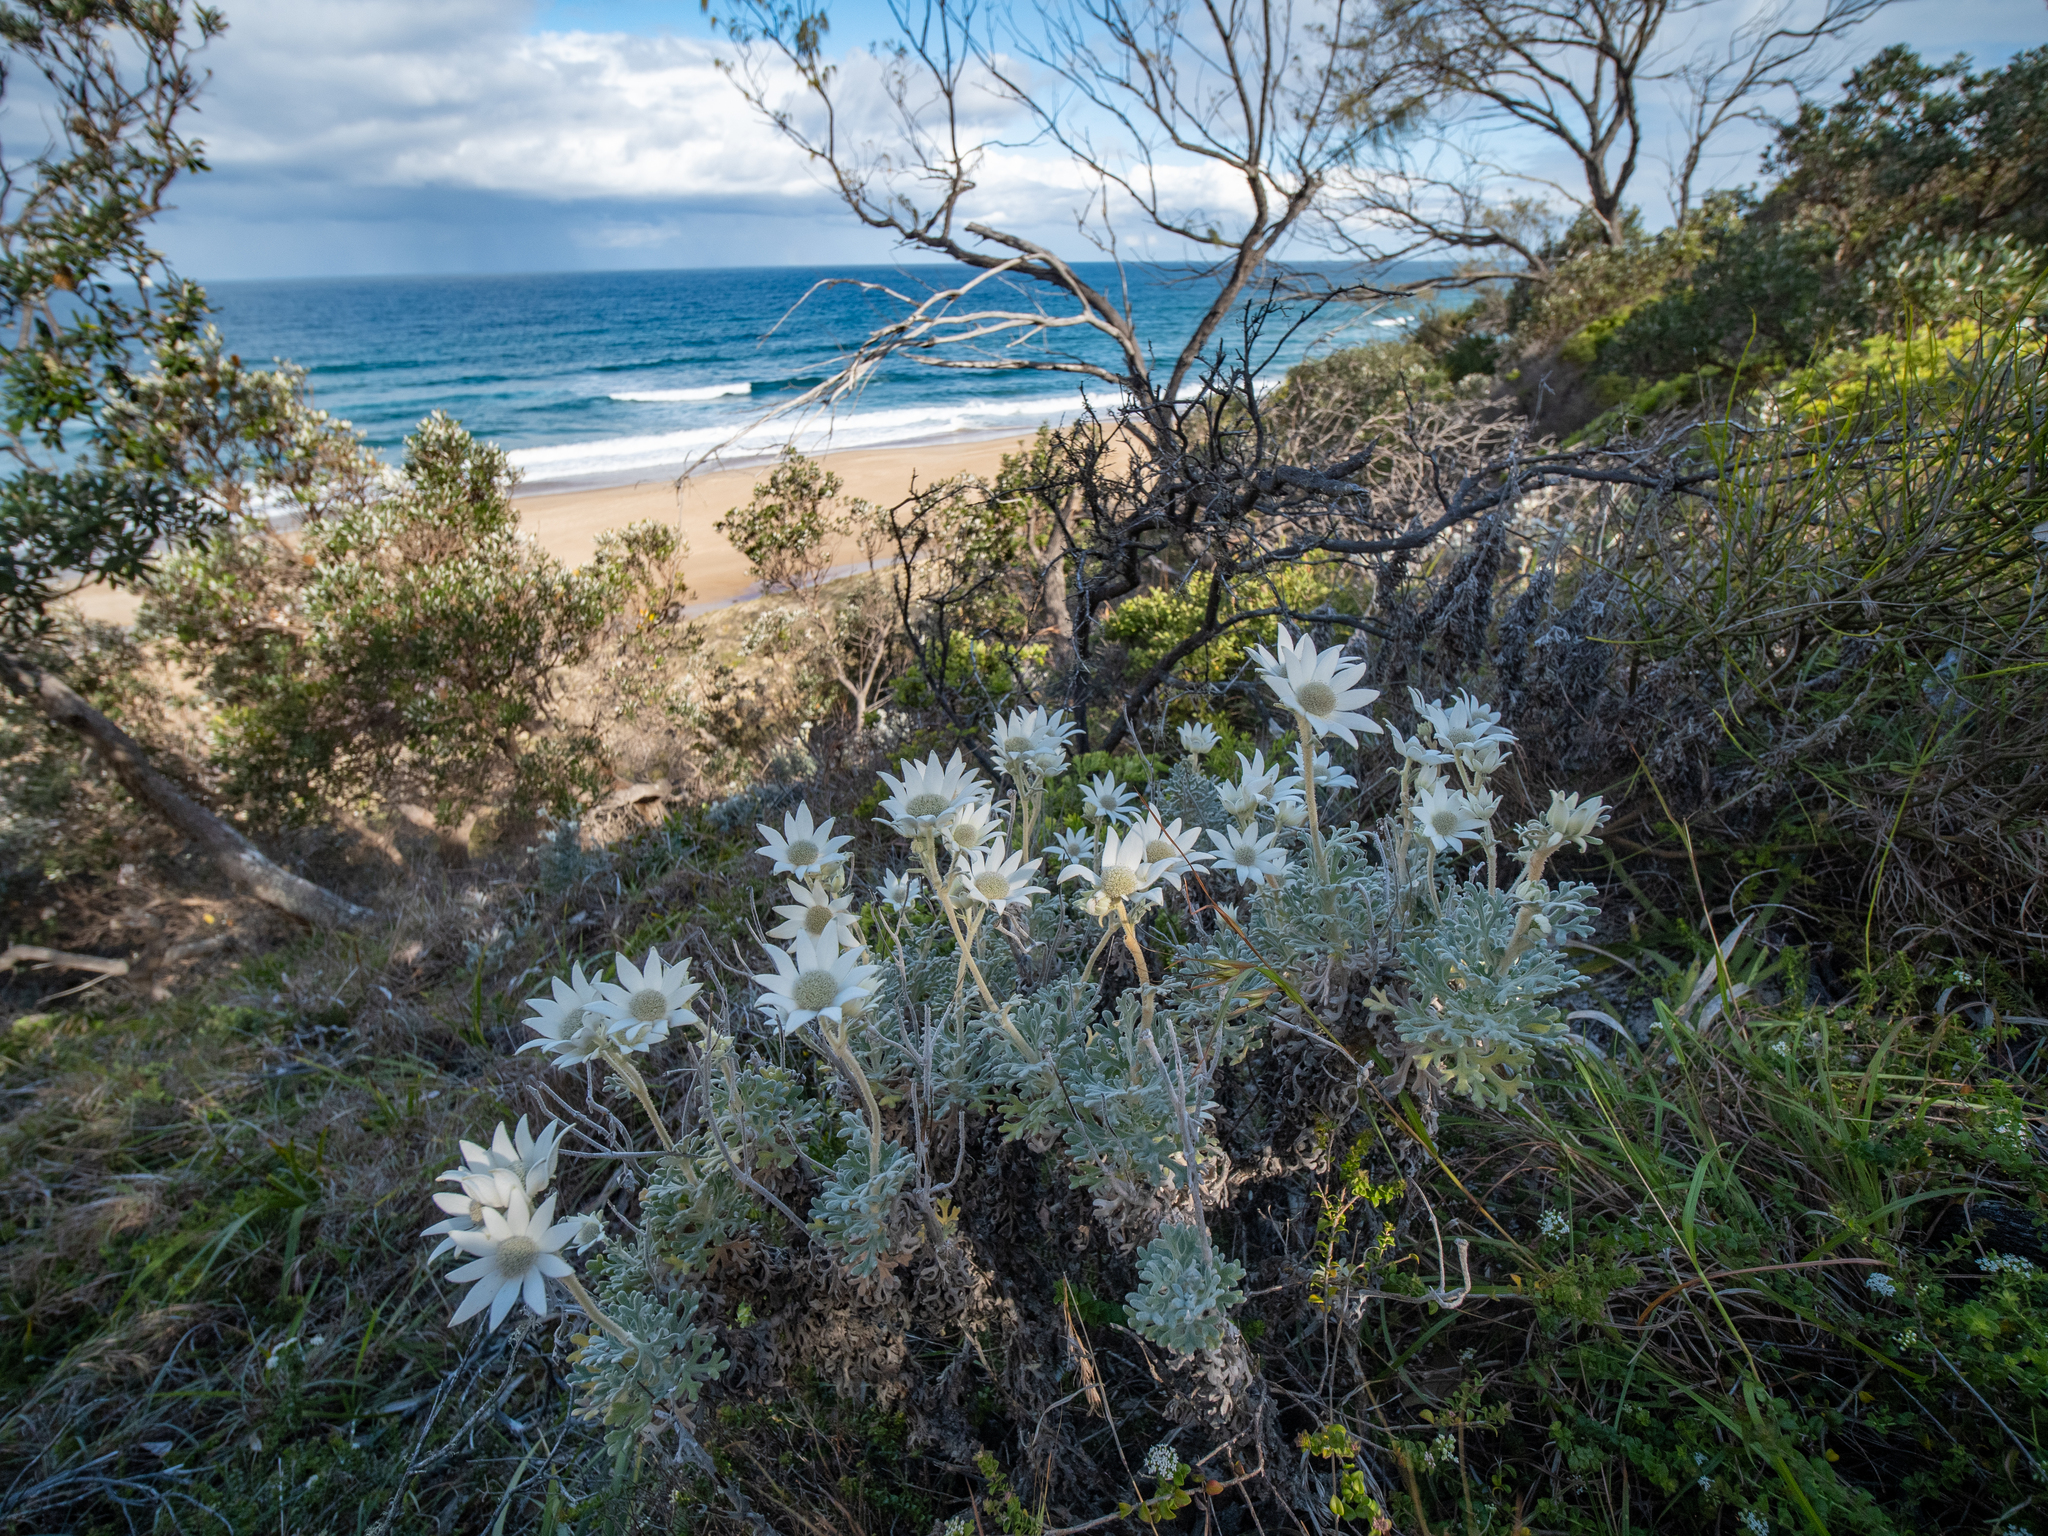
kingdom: Plantae
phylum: Tracheophyta
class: Magnoliopsida
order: Apiales
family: Apiaceae
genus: Actinotus
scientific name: Actinotus helianthi
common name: Flannel-flower
